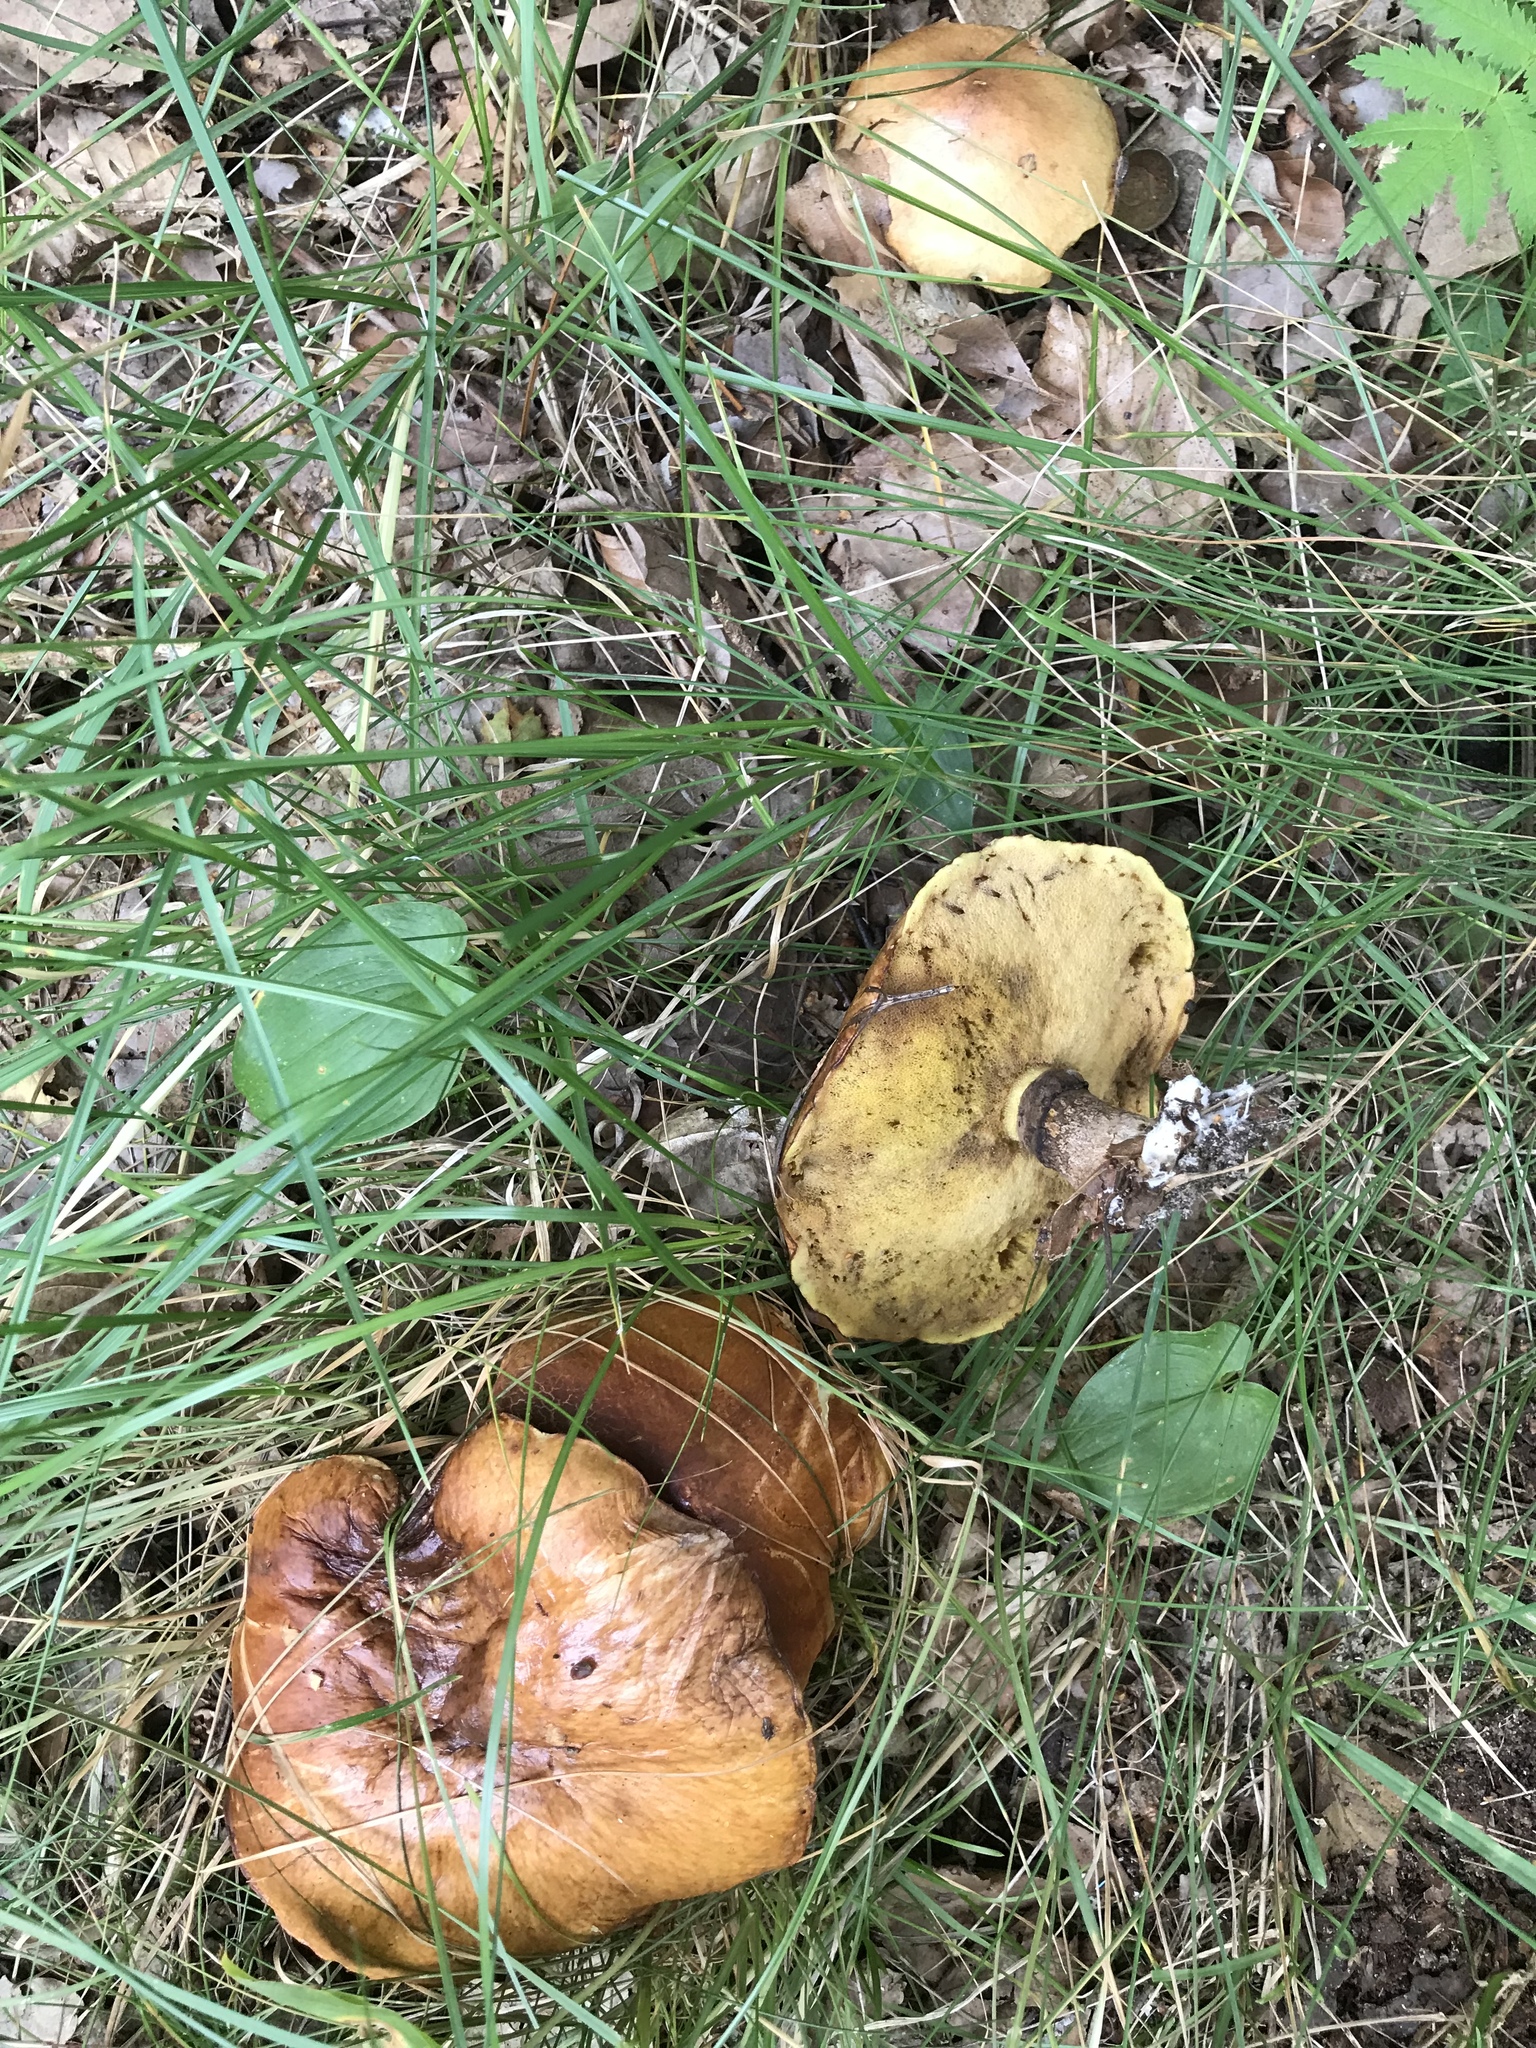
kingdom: Fungi
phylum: Basidiomycota
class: Agaricomycetes
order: Boletales
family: Suillaceae
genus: Suillus
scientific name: Suillus grevillei
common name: Larch bolete
